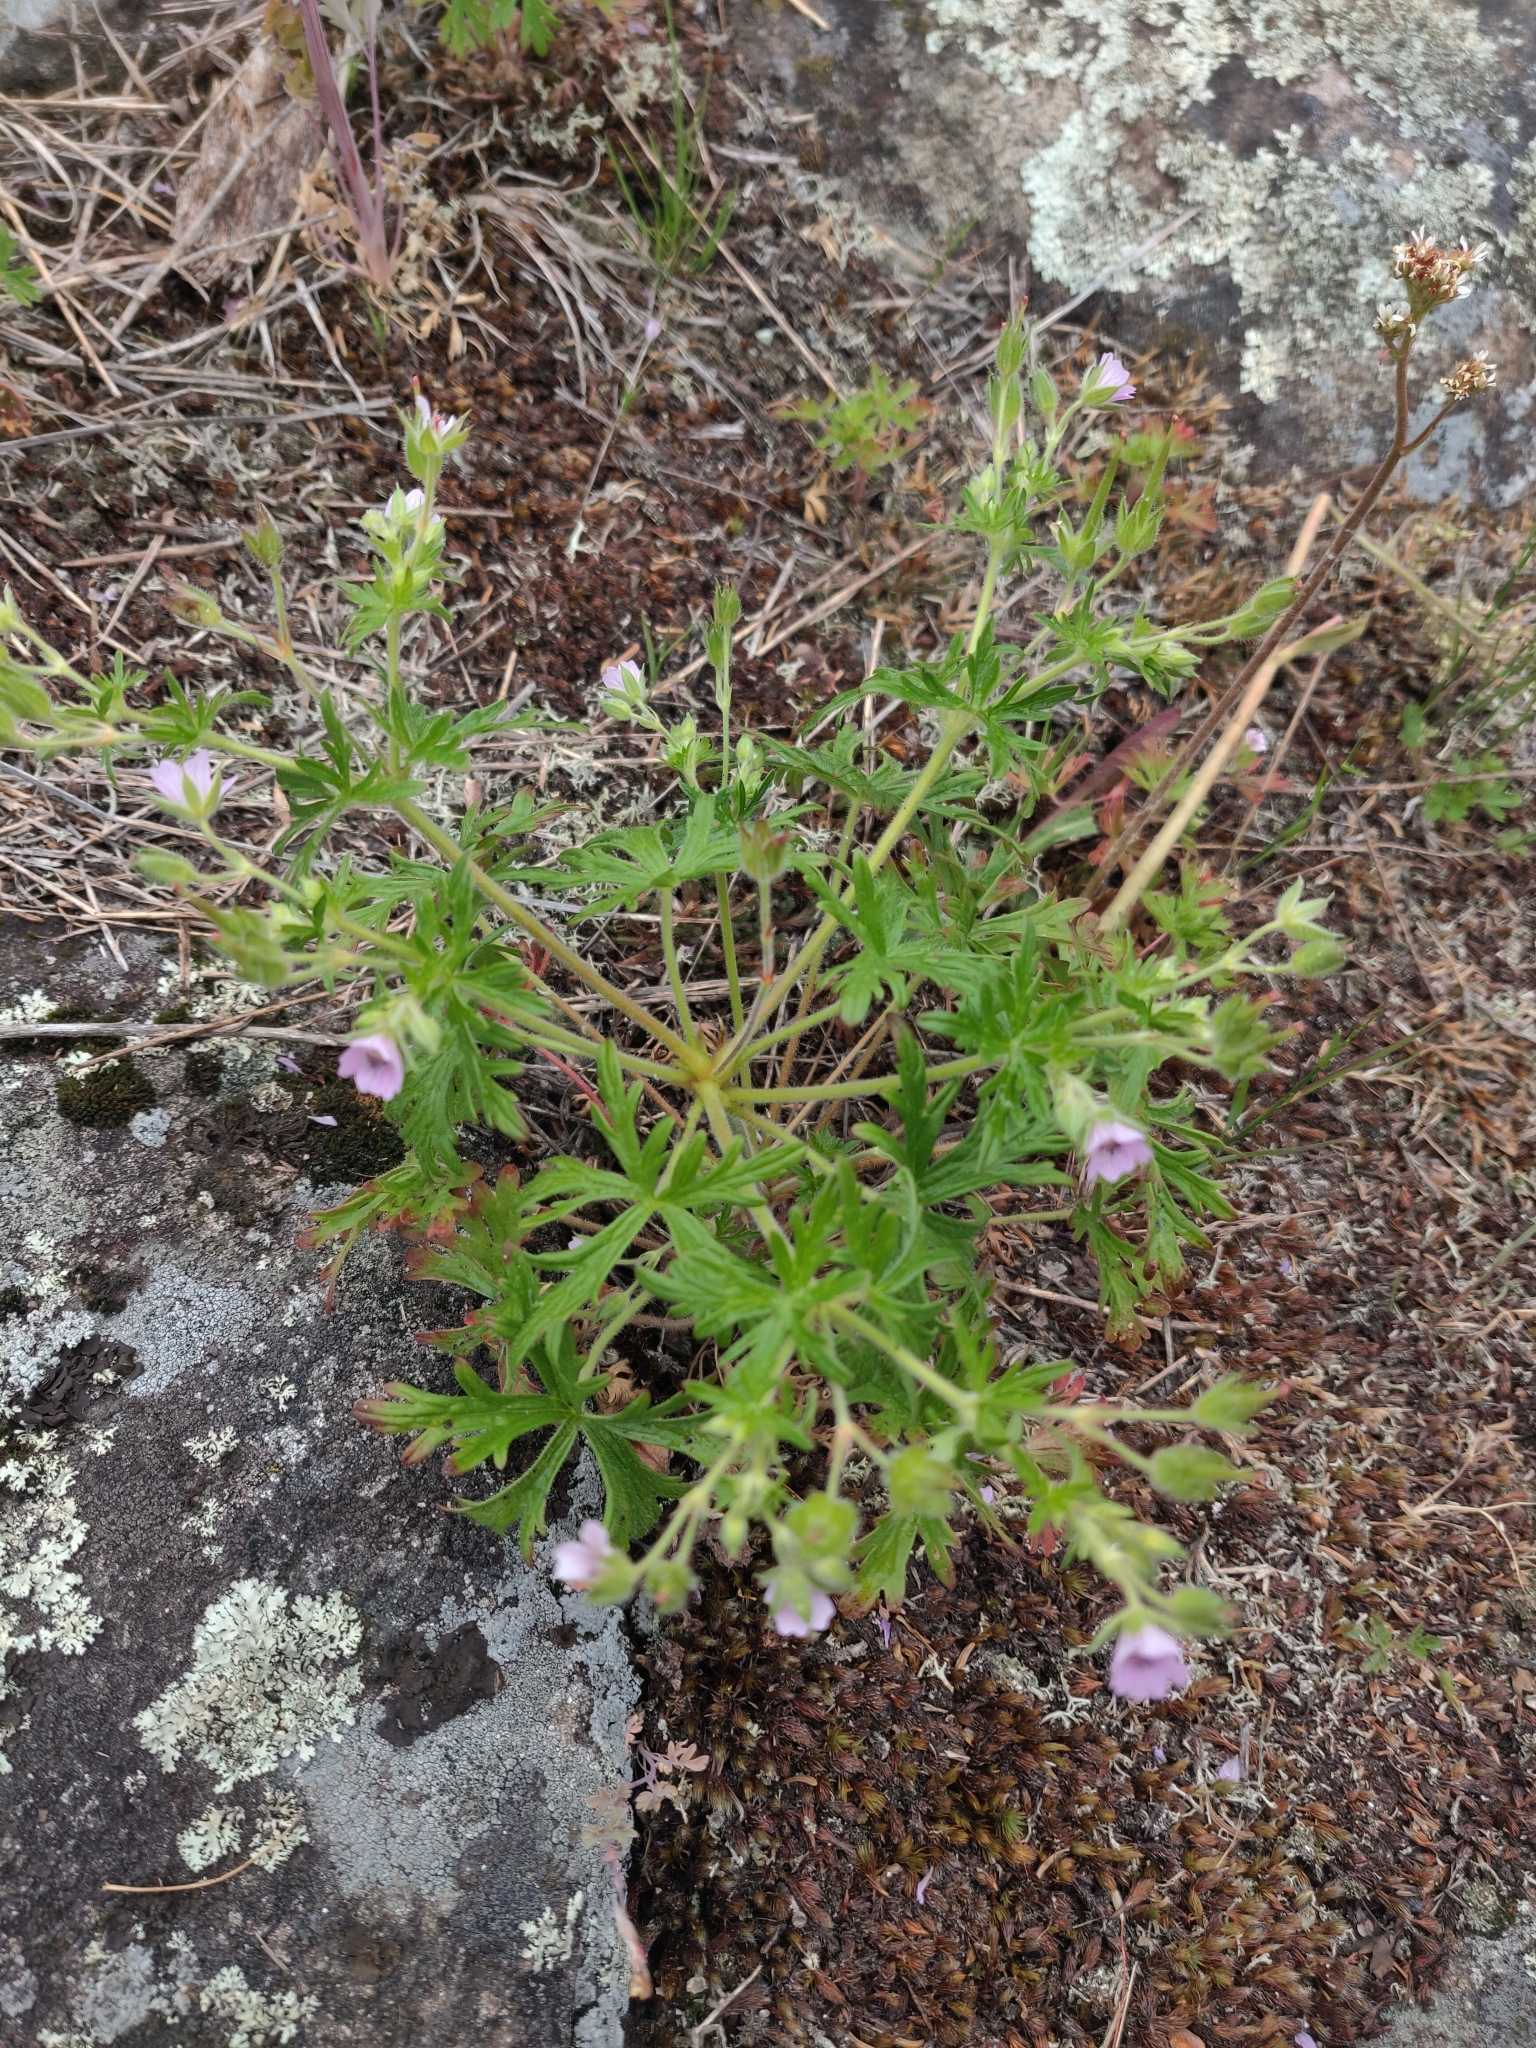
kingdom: Plantae
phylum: Tracheophyta
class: Magnoliopsida
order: Geraniales
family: Geraniaceae
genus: Geranium
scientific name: Geranium bicknellii
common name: Bicknell's cranesbill
